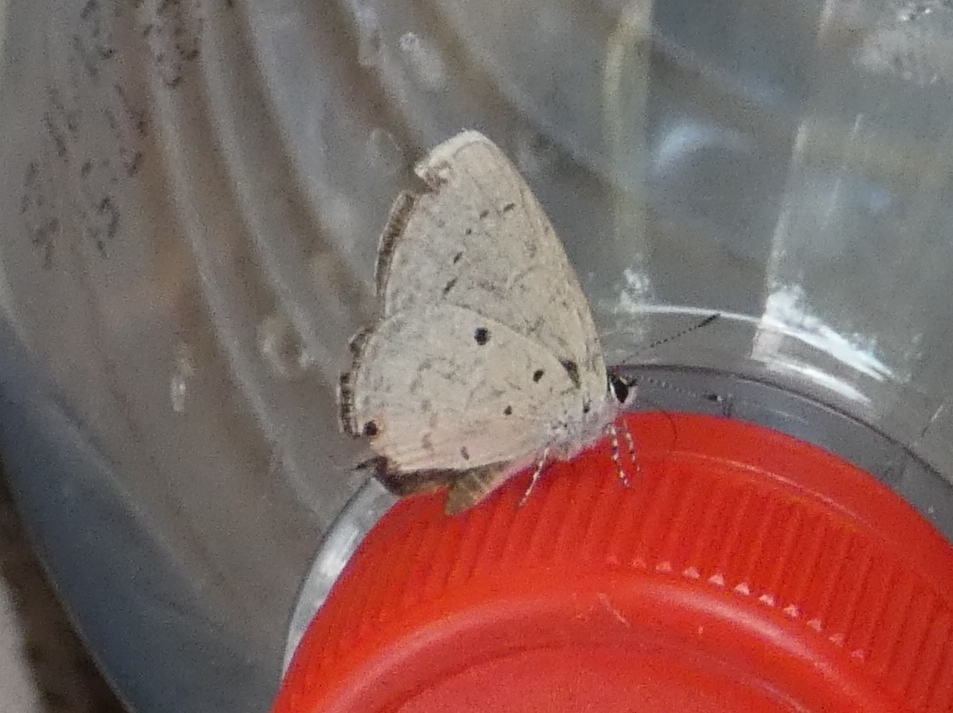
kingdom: Animalia
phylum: Arthropoda
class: Insecta
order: Lepidoptera
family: Lycaenidae
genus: Eicochrysops
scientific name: Eicochrysops hippocrates
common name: White-tipped blue
